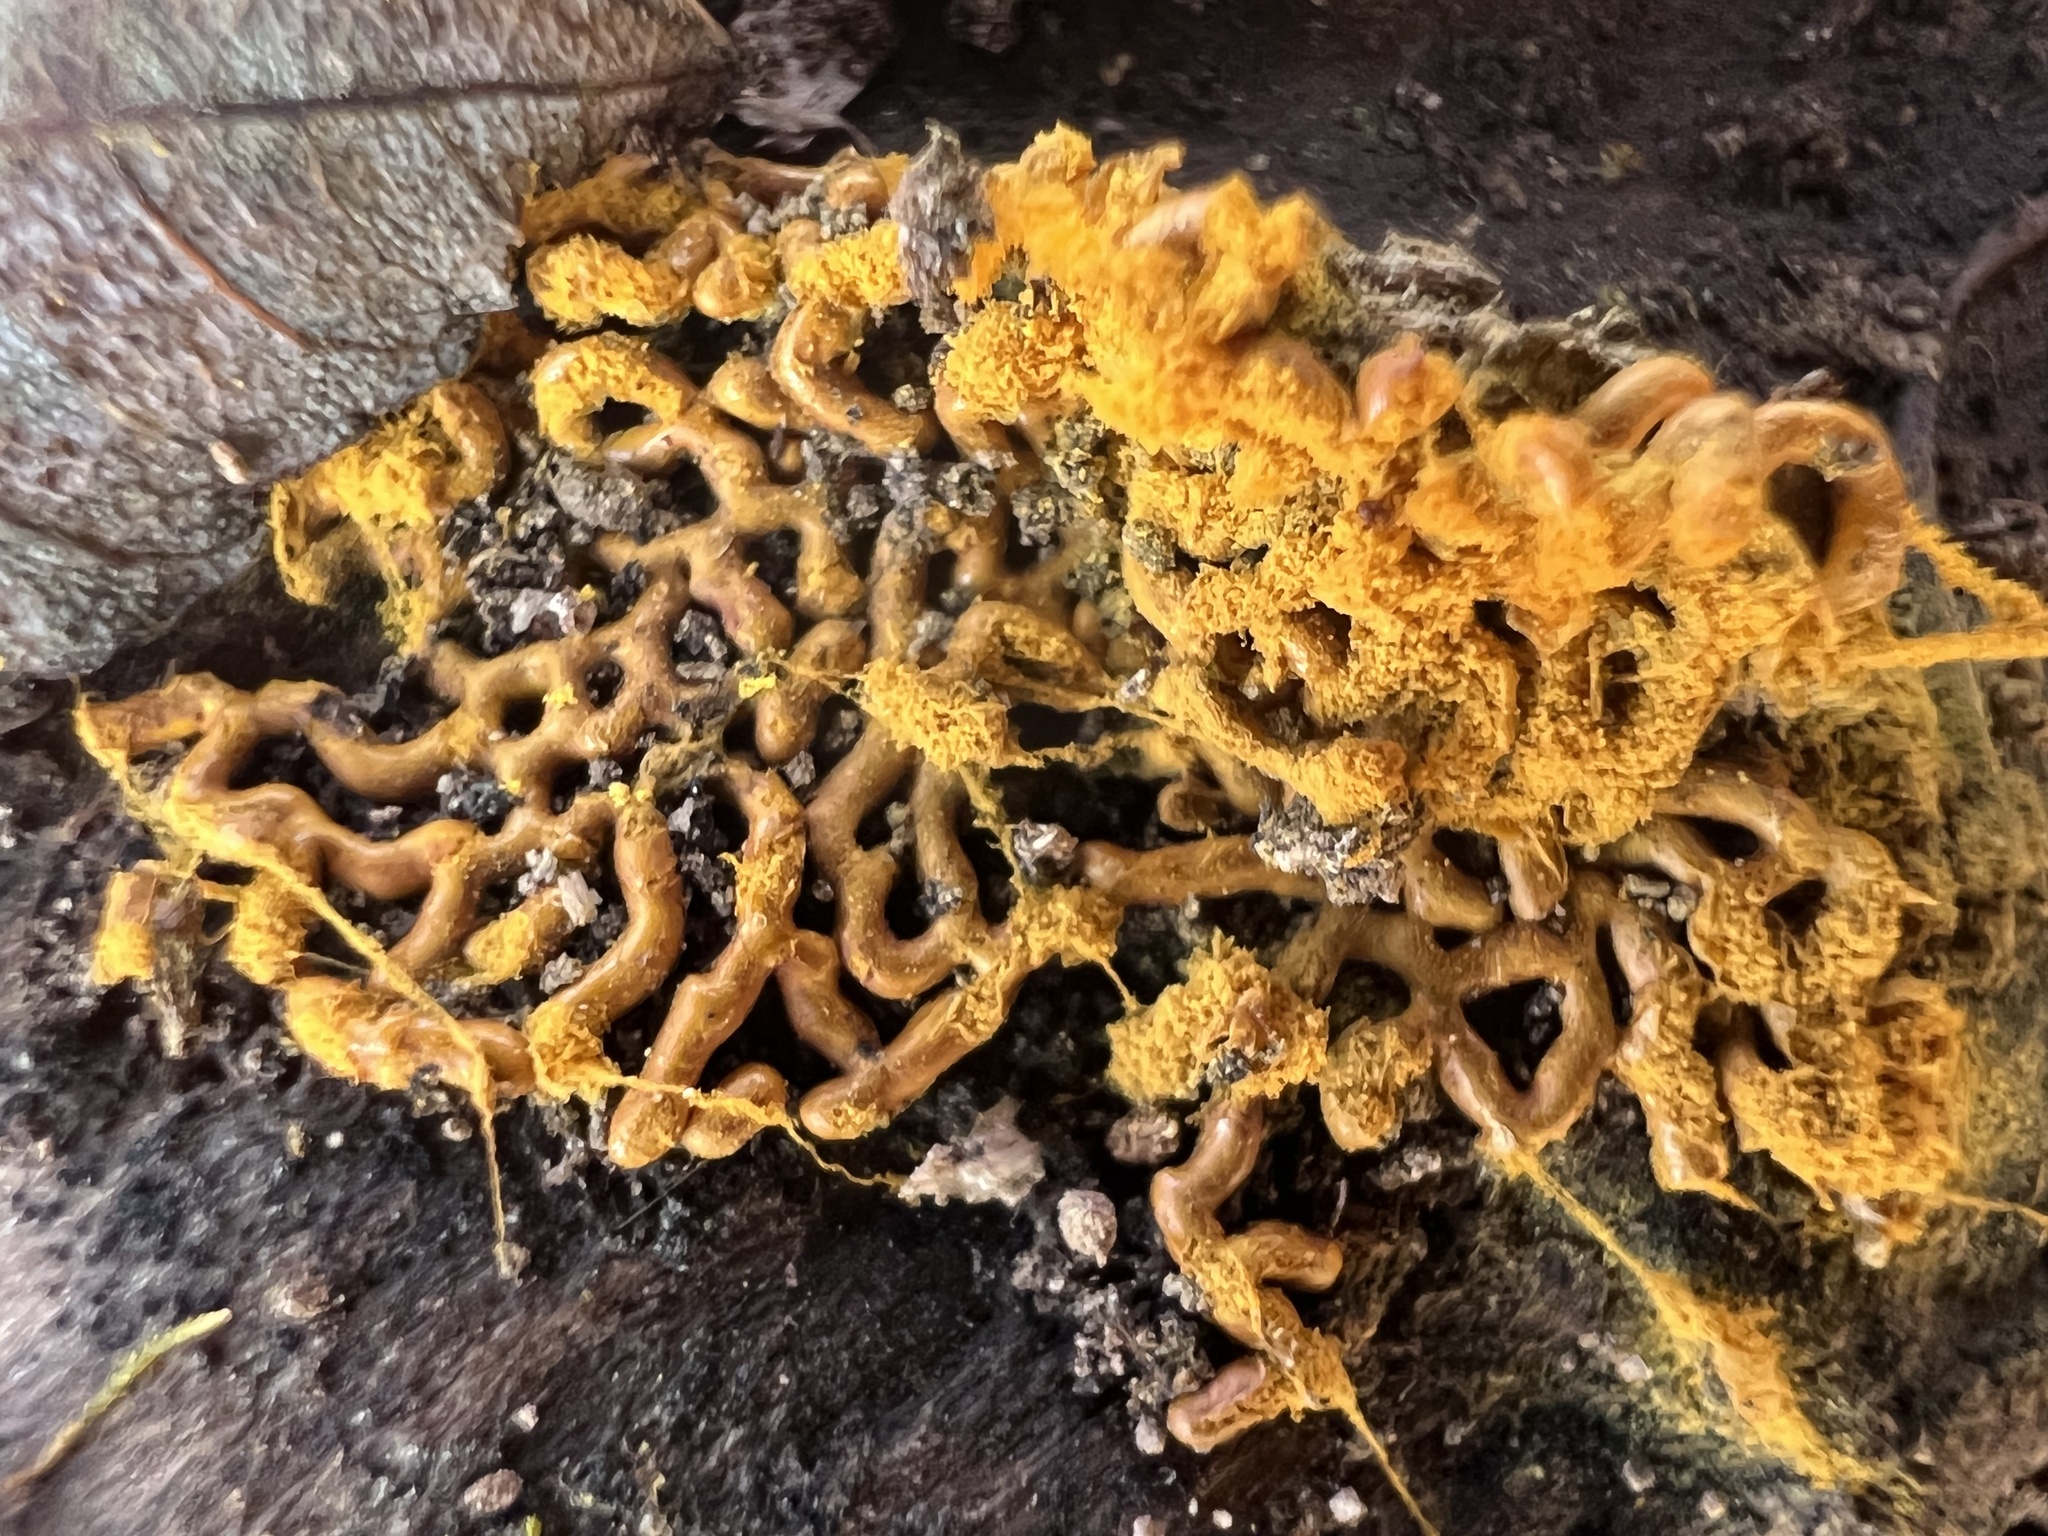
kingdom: Protozoa
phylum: Mycetozoa
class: Myxomycetes
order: Trichiales
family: Arcyriaceae
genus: Hemitrichia
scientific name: Hemitrichia serpula
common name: Pretzel slime mold
